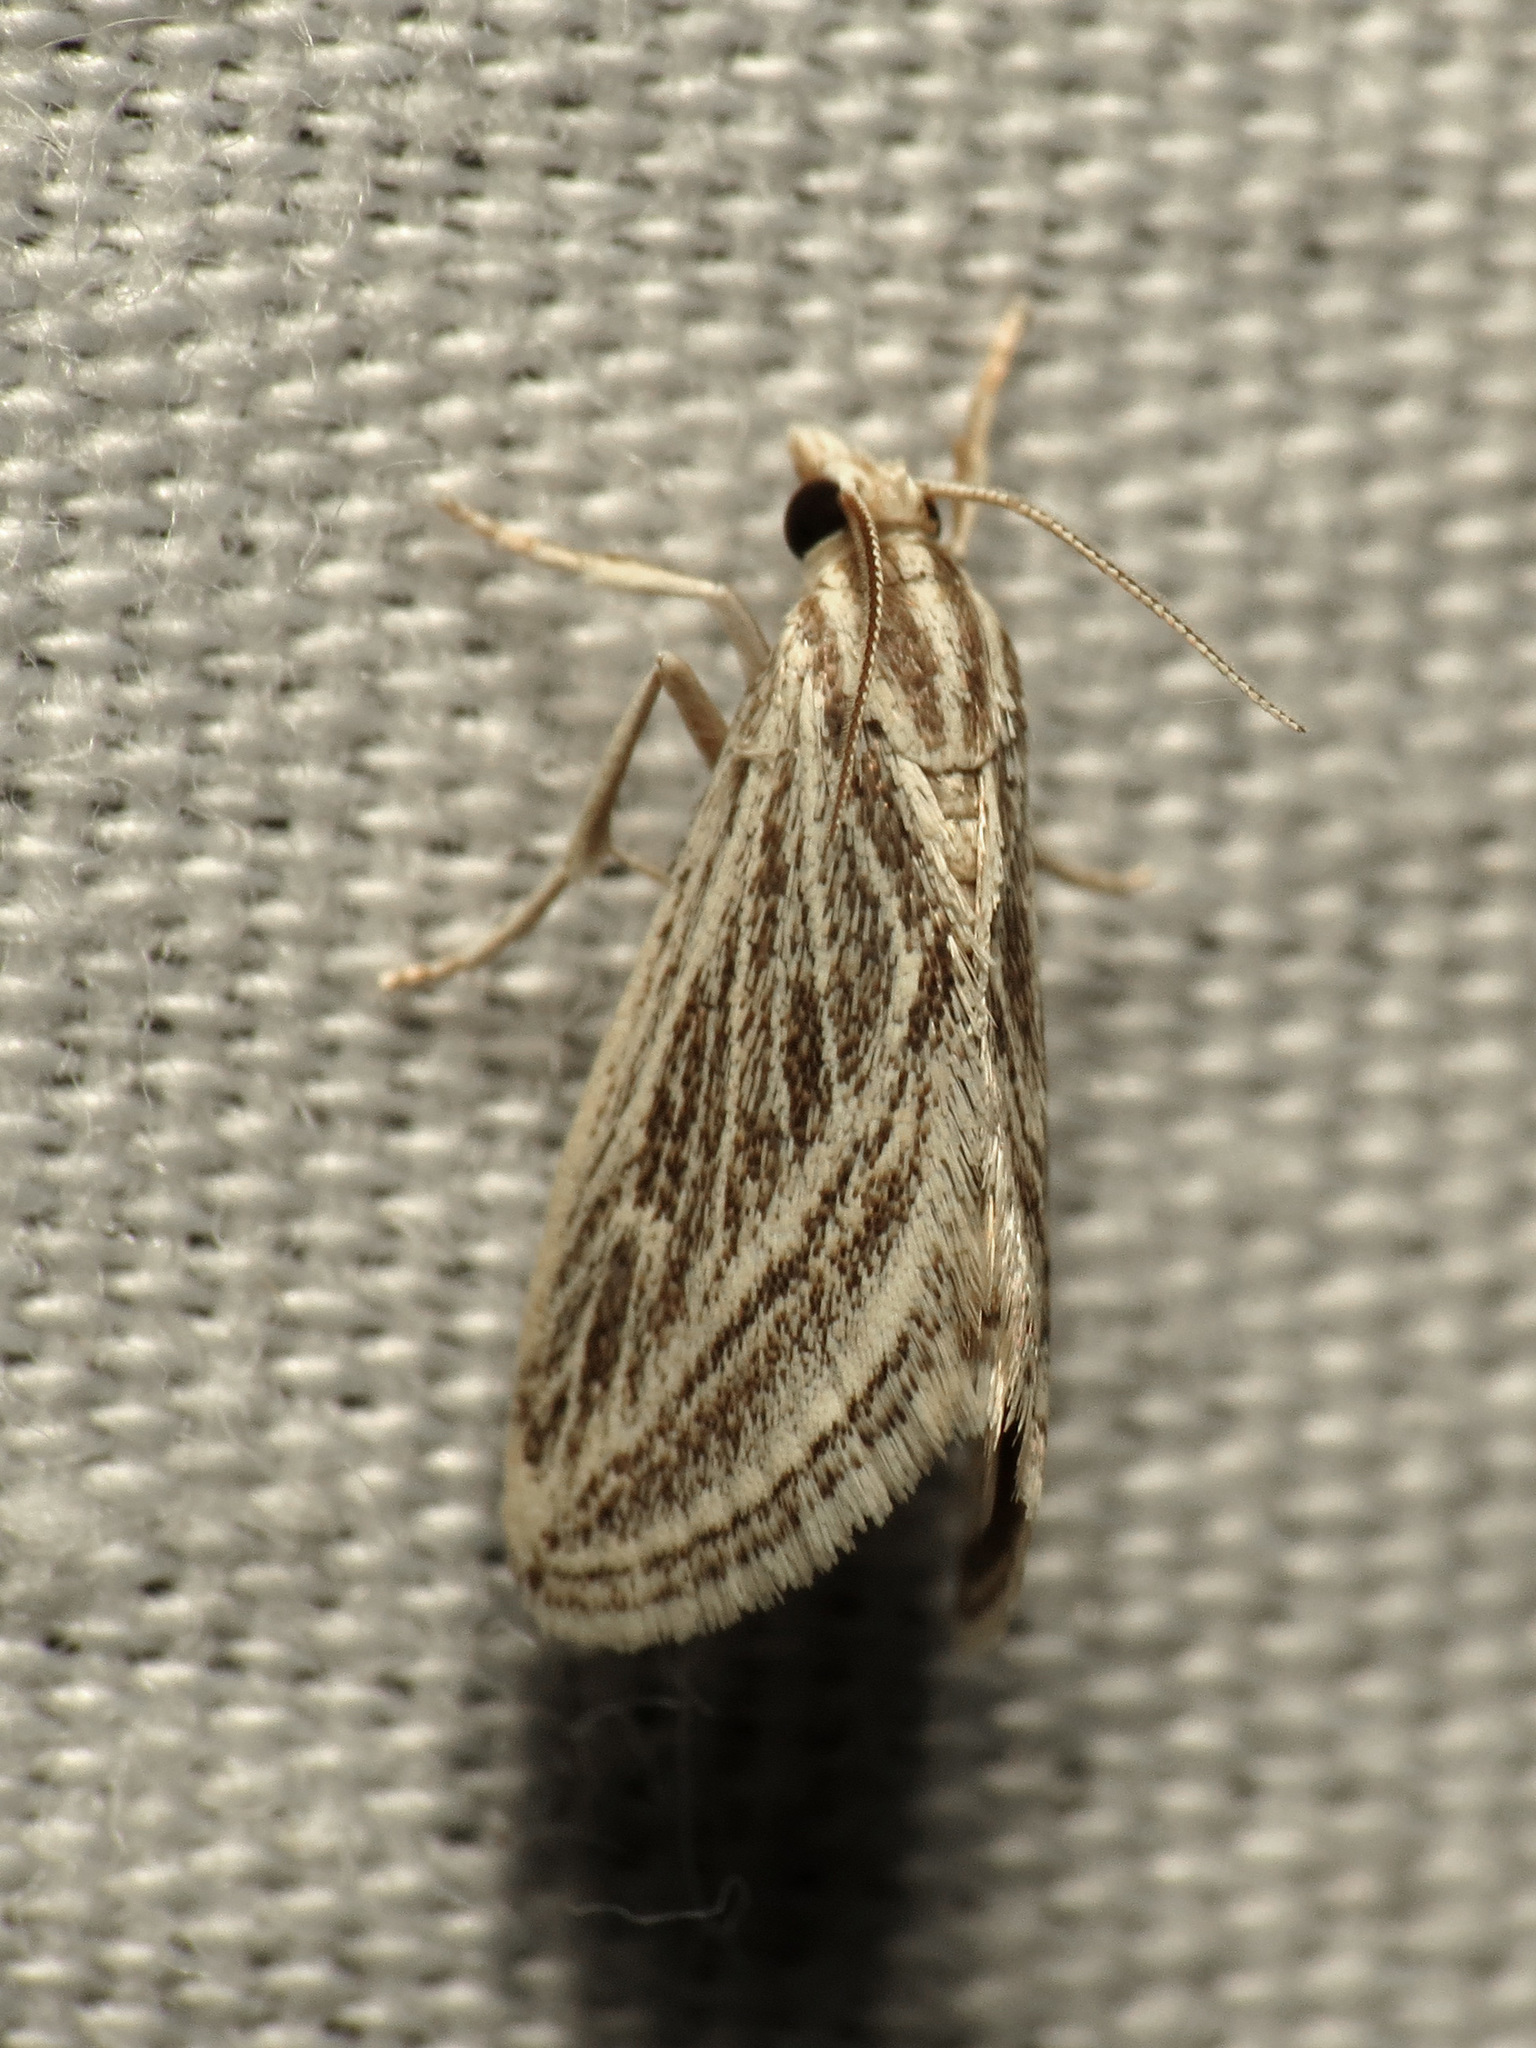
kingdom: Animalia
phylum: Arthropoda
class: Insecta
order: Lepidoptera
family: Crambidae
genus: Procymbopteryx
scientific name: Procymbopteryx belialis
